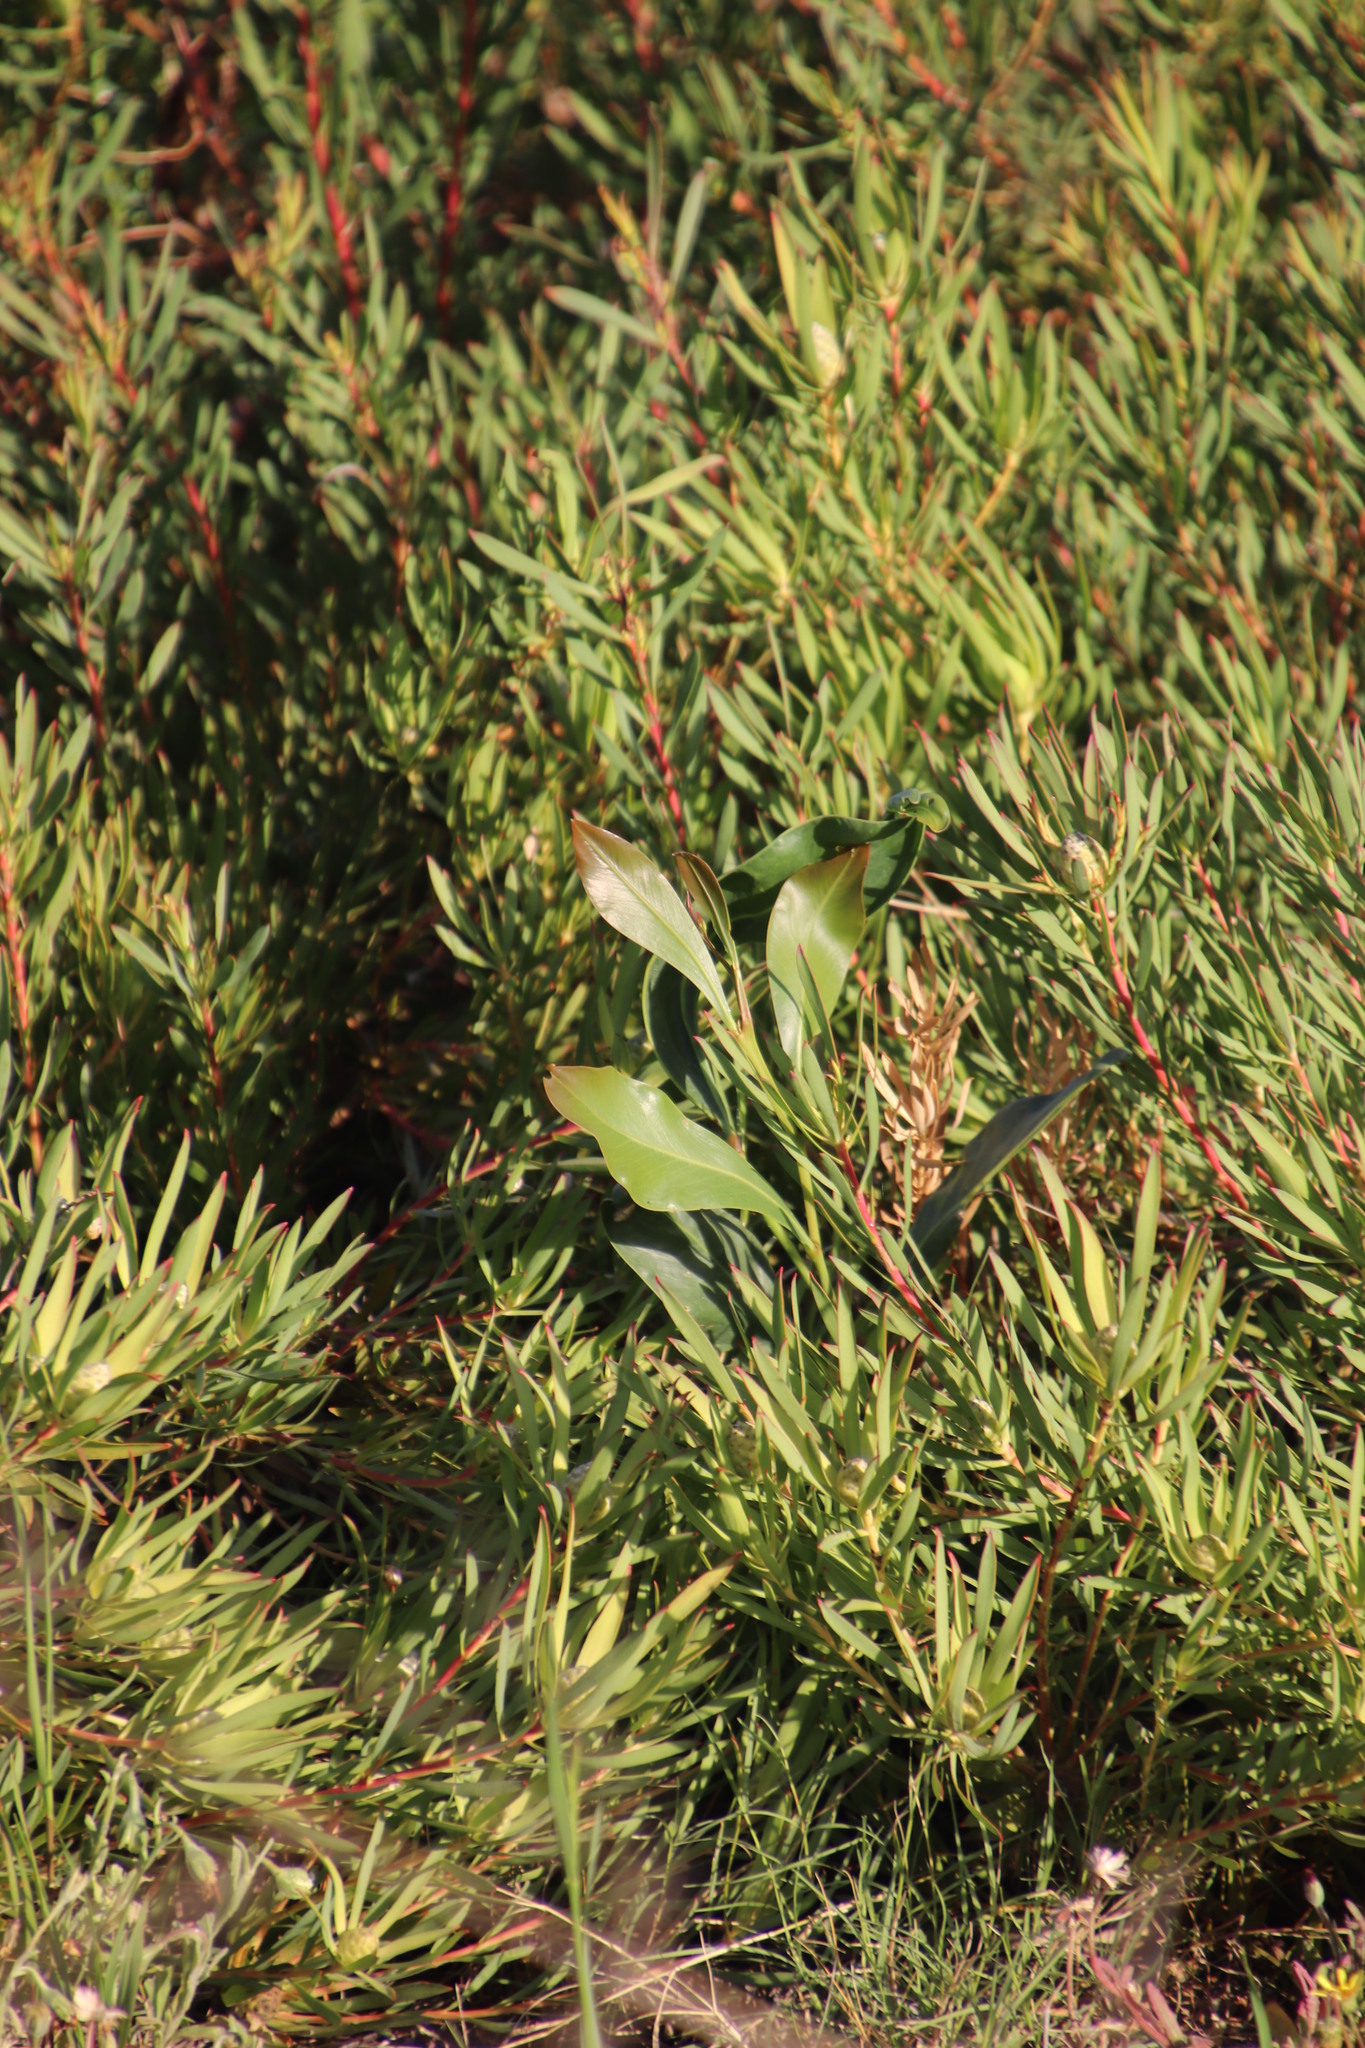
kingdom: Plantae
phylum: Tracheophyta
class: Magnoliopsida
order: Fabales
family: Fabaceae
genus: Acacia
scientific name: Acacia saligna
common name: Orange wattle
